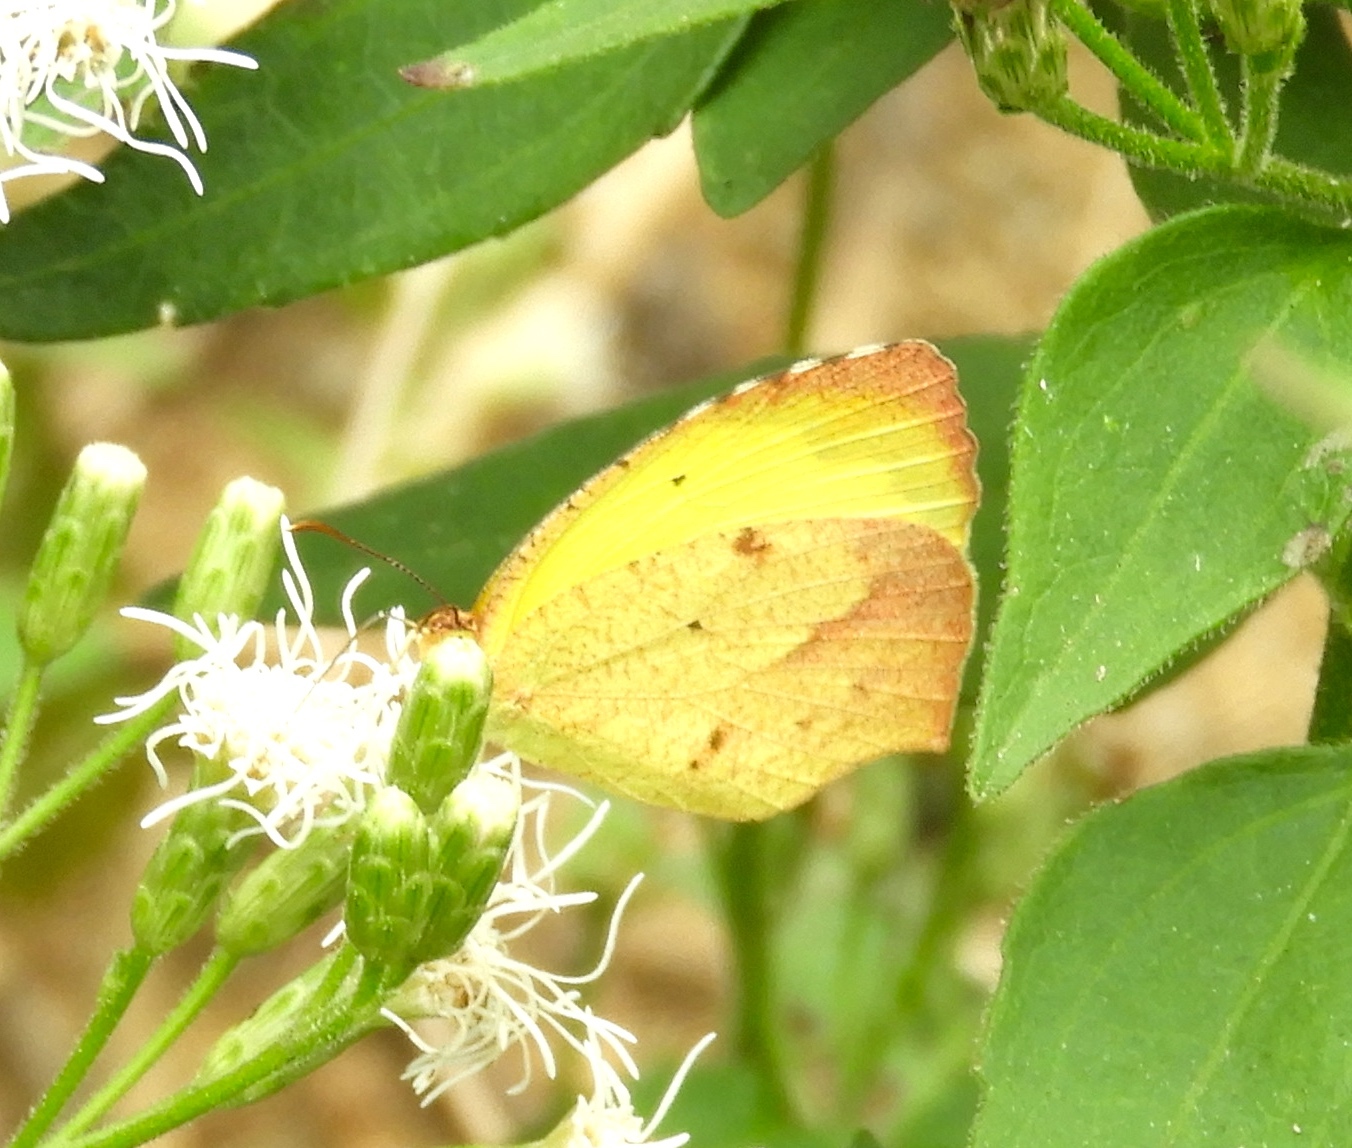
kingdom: Animalia
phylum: Arthropoda
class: Insecta
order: Lepidoptera
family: Pieridae
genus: Abaeis
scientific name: Abaeis boisduvaliana
